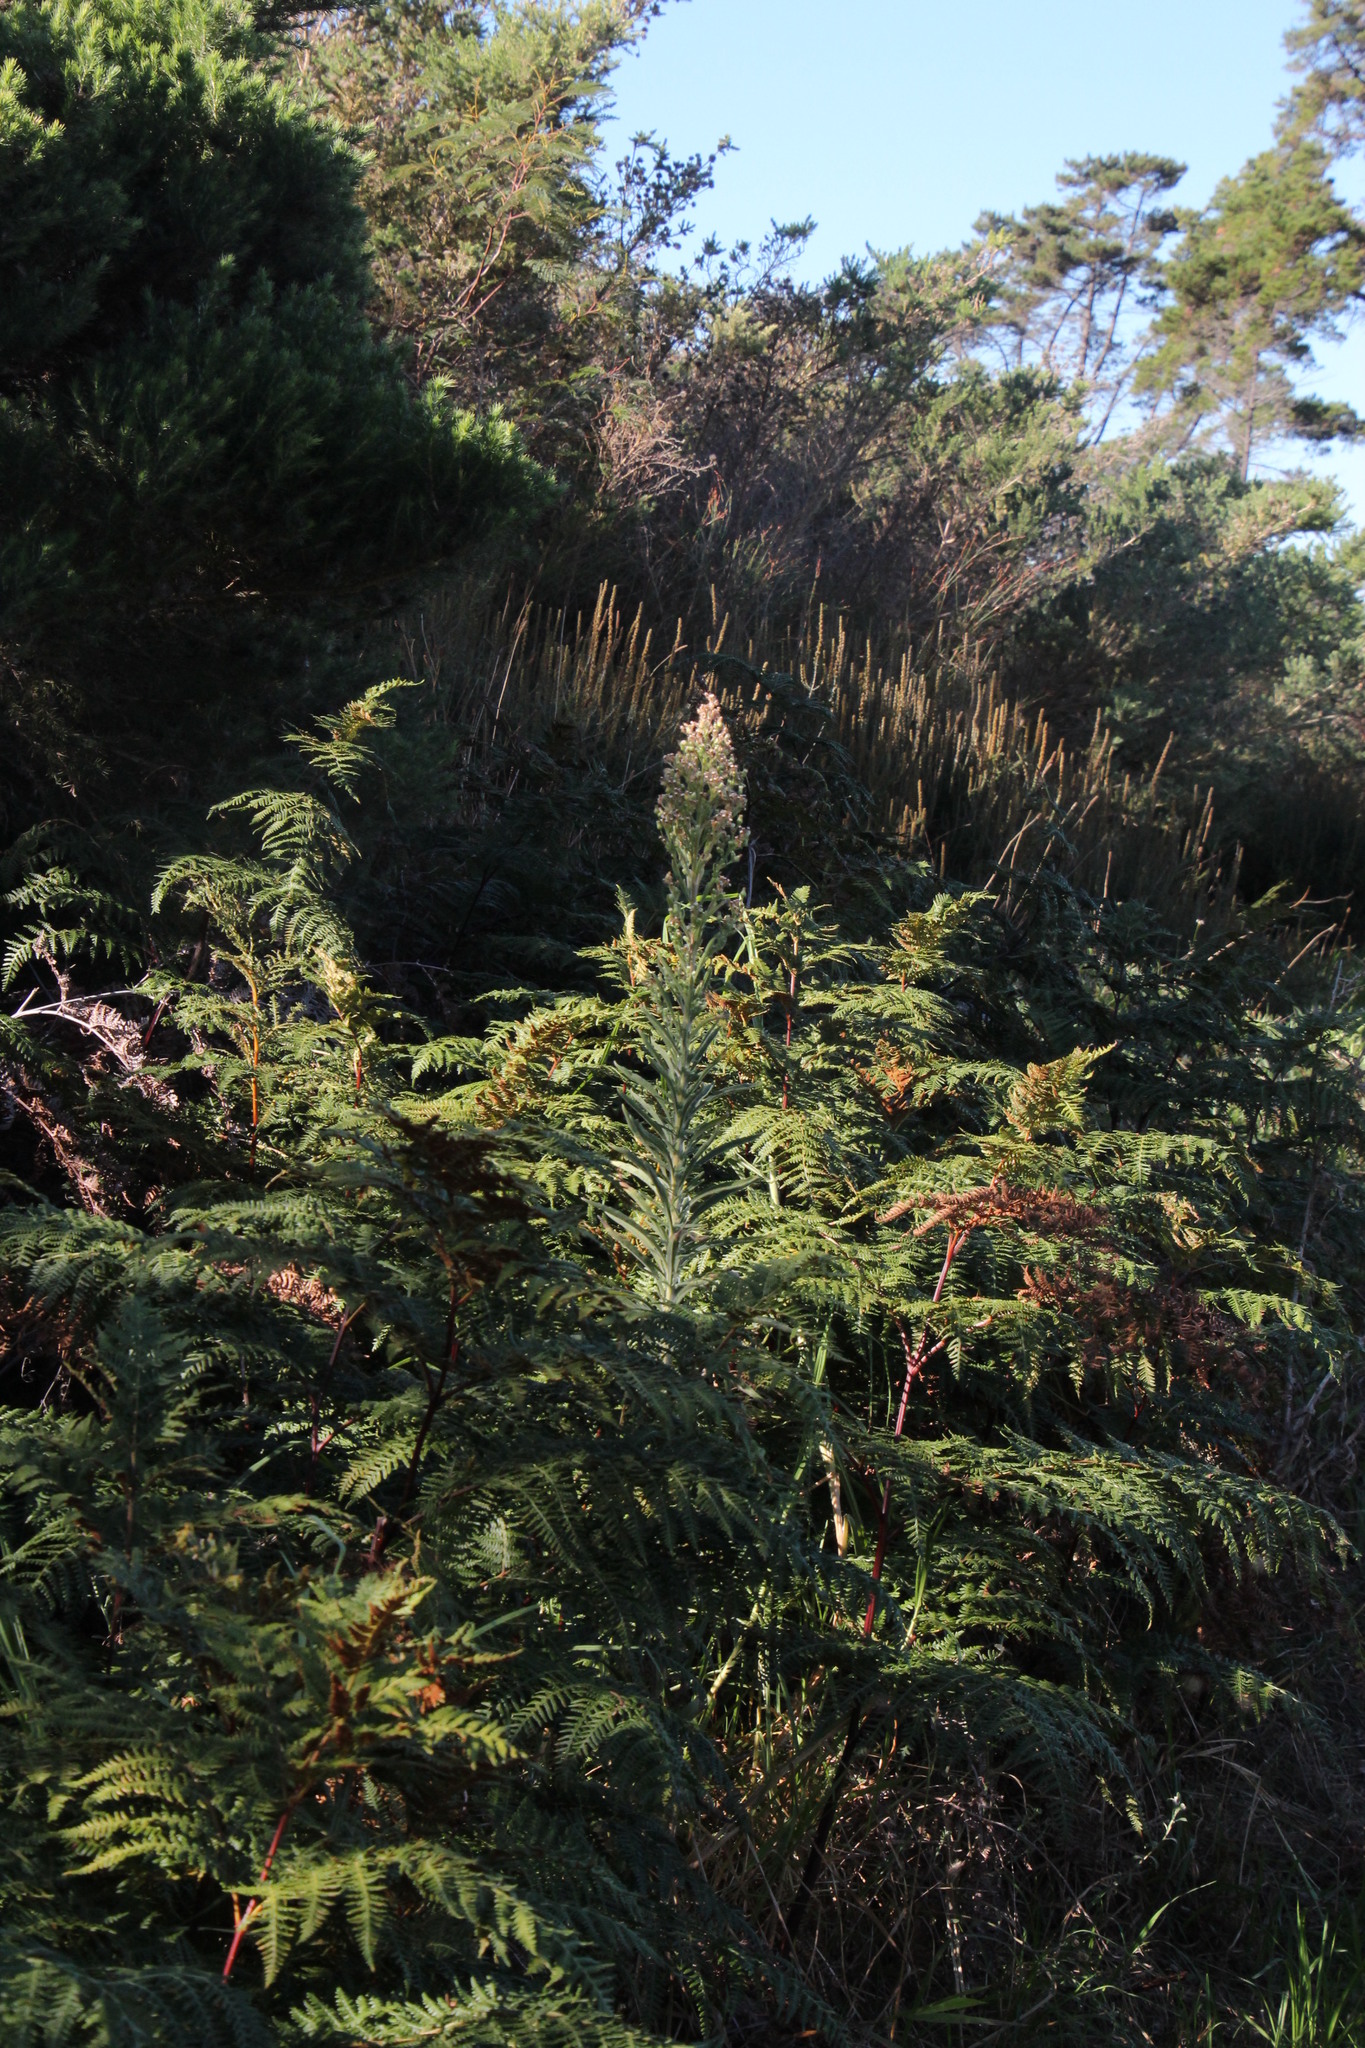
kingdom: Plantae
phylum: Tracheophyta
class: Magnoliopsida
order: Asterales
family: Asteraceae
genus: Erigeron
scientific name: Erigeron sumatrensis
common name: Daisy
